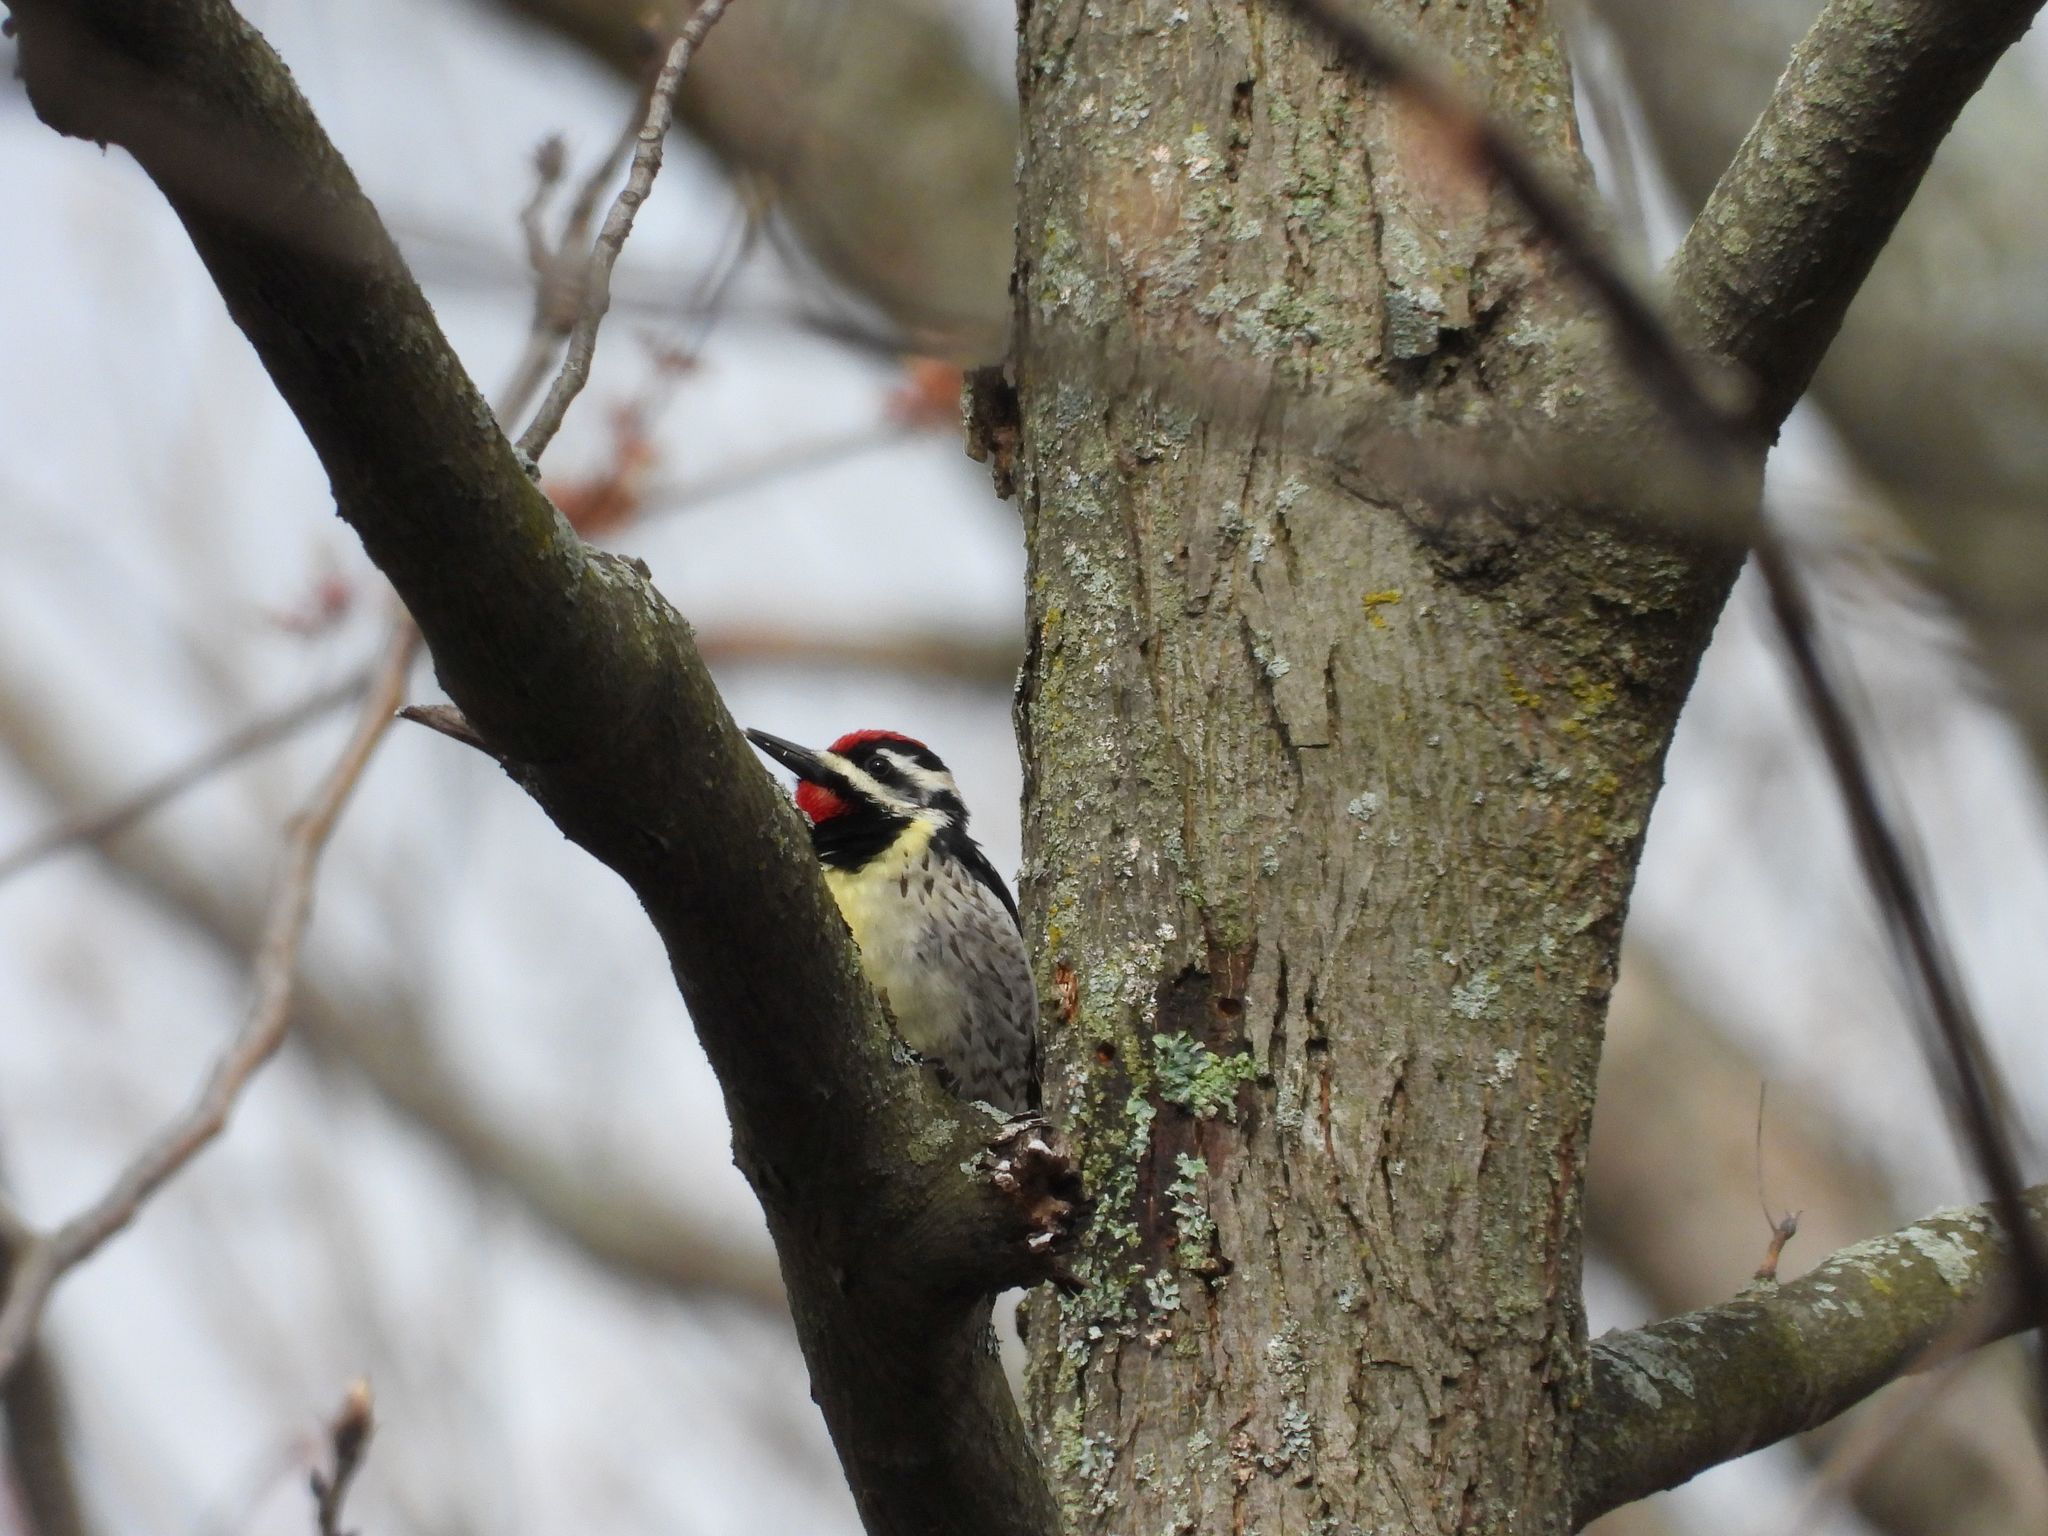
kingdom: Animalia
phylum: Chordata
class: Aves
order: Piciformes
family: Picidae
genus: Sphyrapicus
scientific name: Sphyrapicus varius
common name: Yellow-bellied sapsucker
